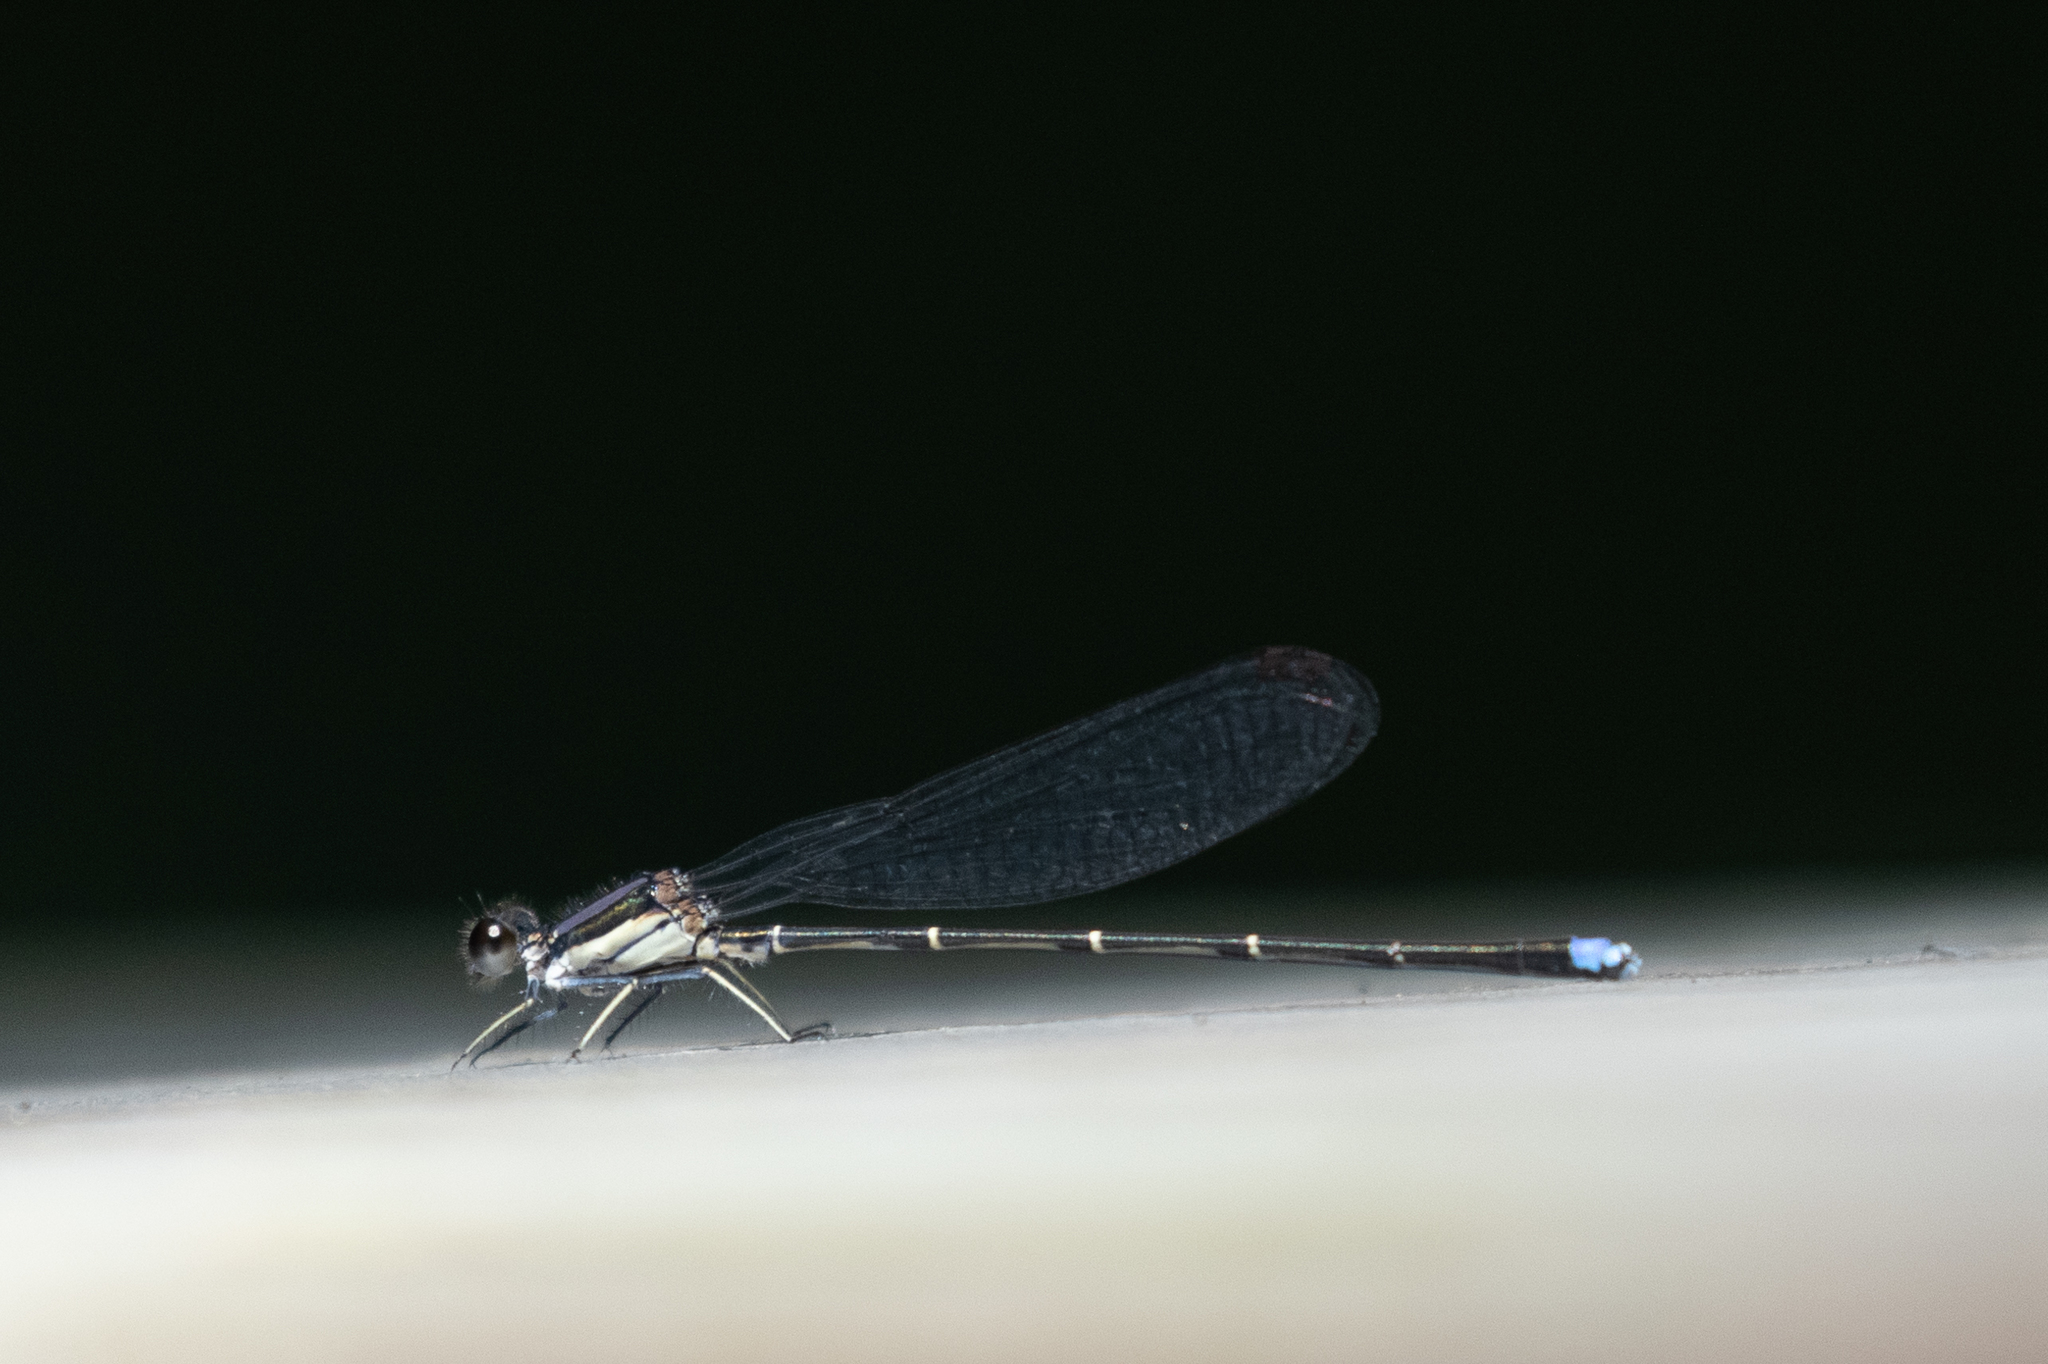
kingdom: Animalia
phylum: Arthropoda
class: Insecta
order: Odonata
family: Coenagrionidae
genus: Argia
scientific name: Argia tibialis
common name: Blue-tipped dancer
